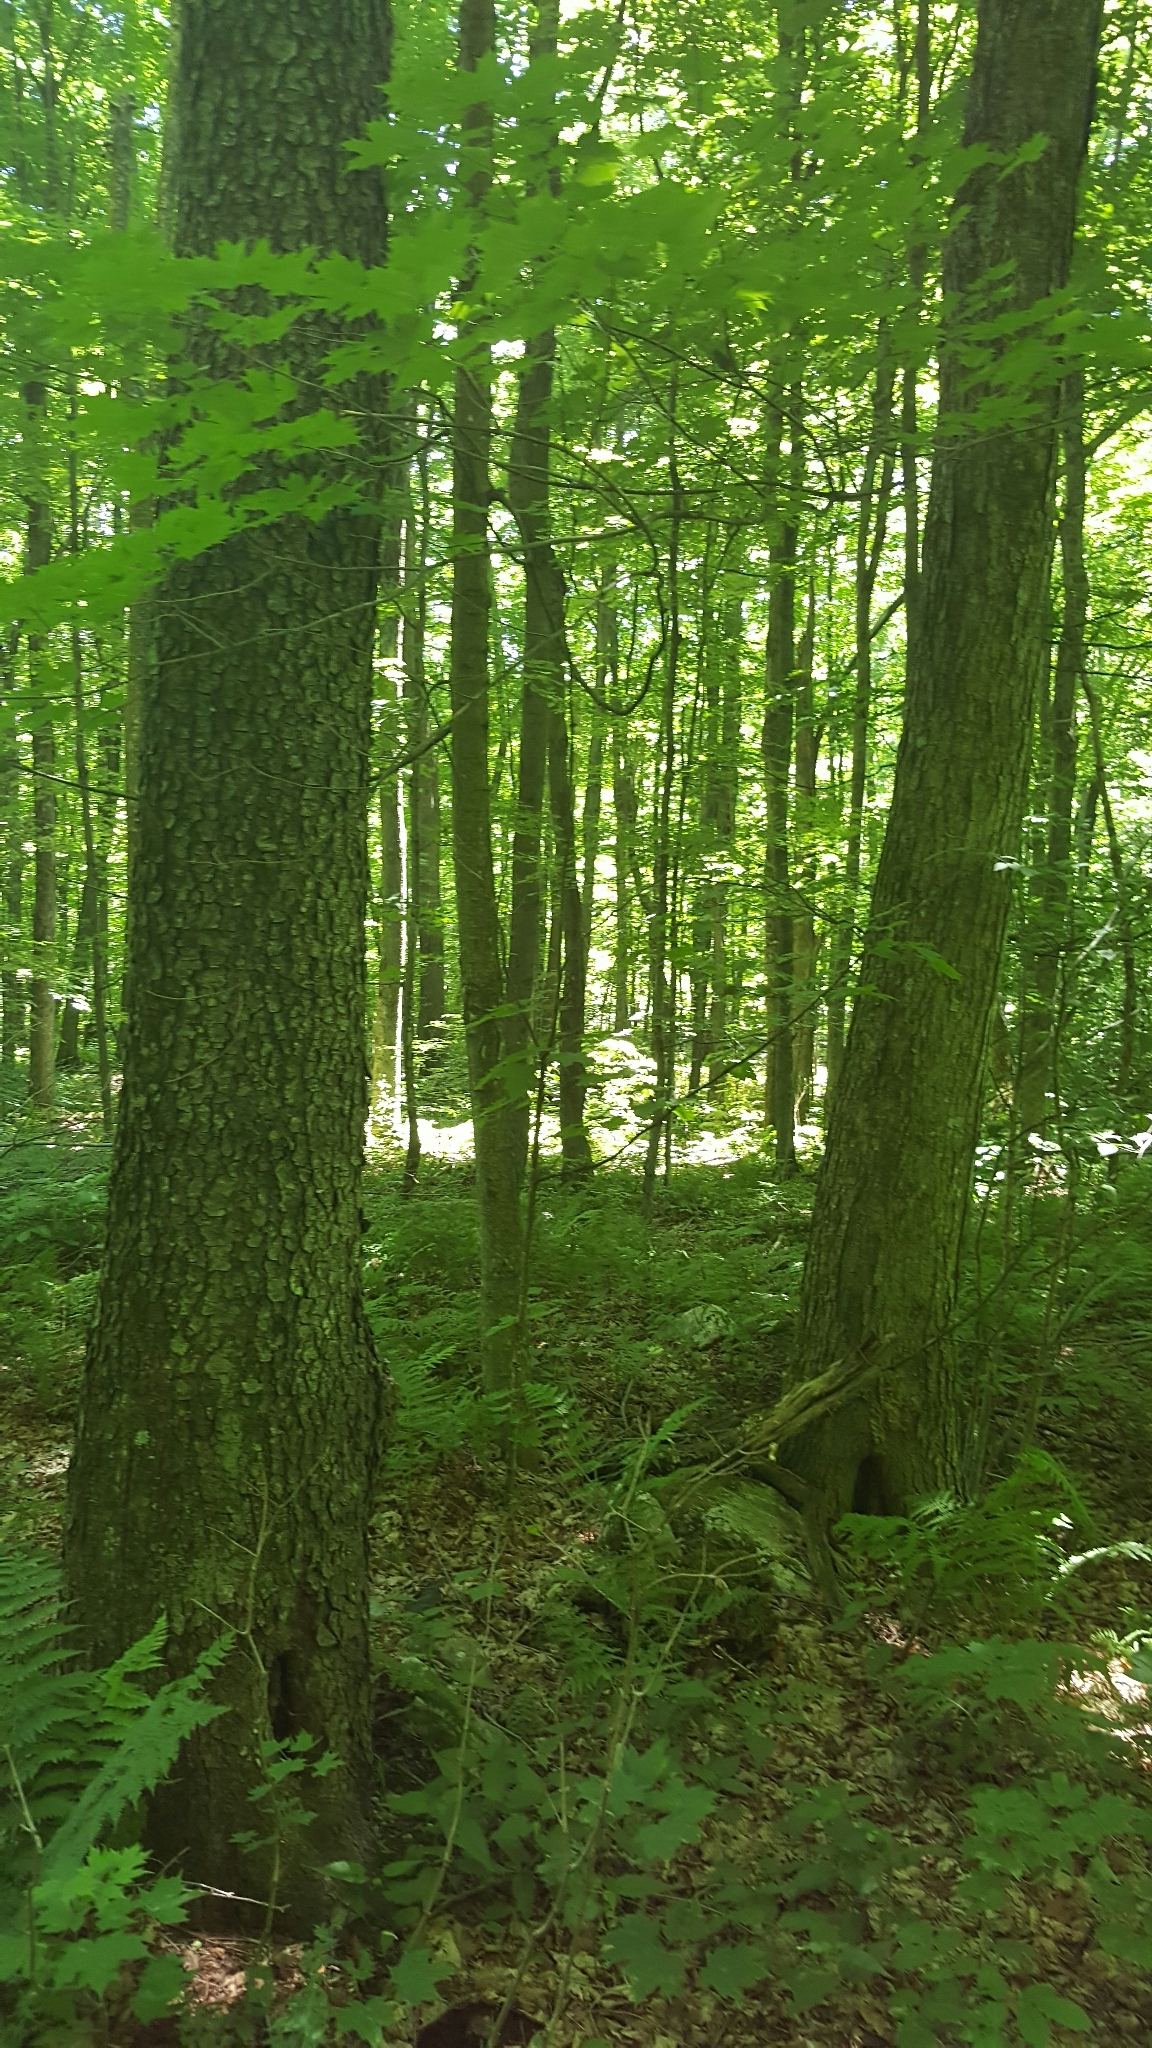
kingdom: Plantae
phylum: Tracheophyta
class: Magnoliopsida
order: Rosales
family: Rosaceae
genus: Prunus
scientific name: Prunus serotina
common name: Black cherry
